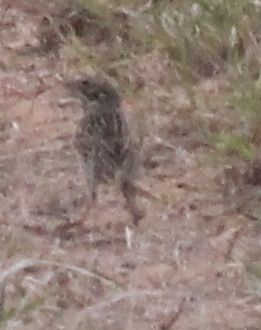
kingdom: Animalia
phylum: Chordata
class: Aves
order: Passeriformes
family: Passerellidae
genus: Pooecetes
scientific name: Pooecetes gramineus
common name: Vesper sparrow
